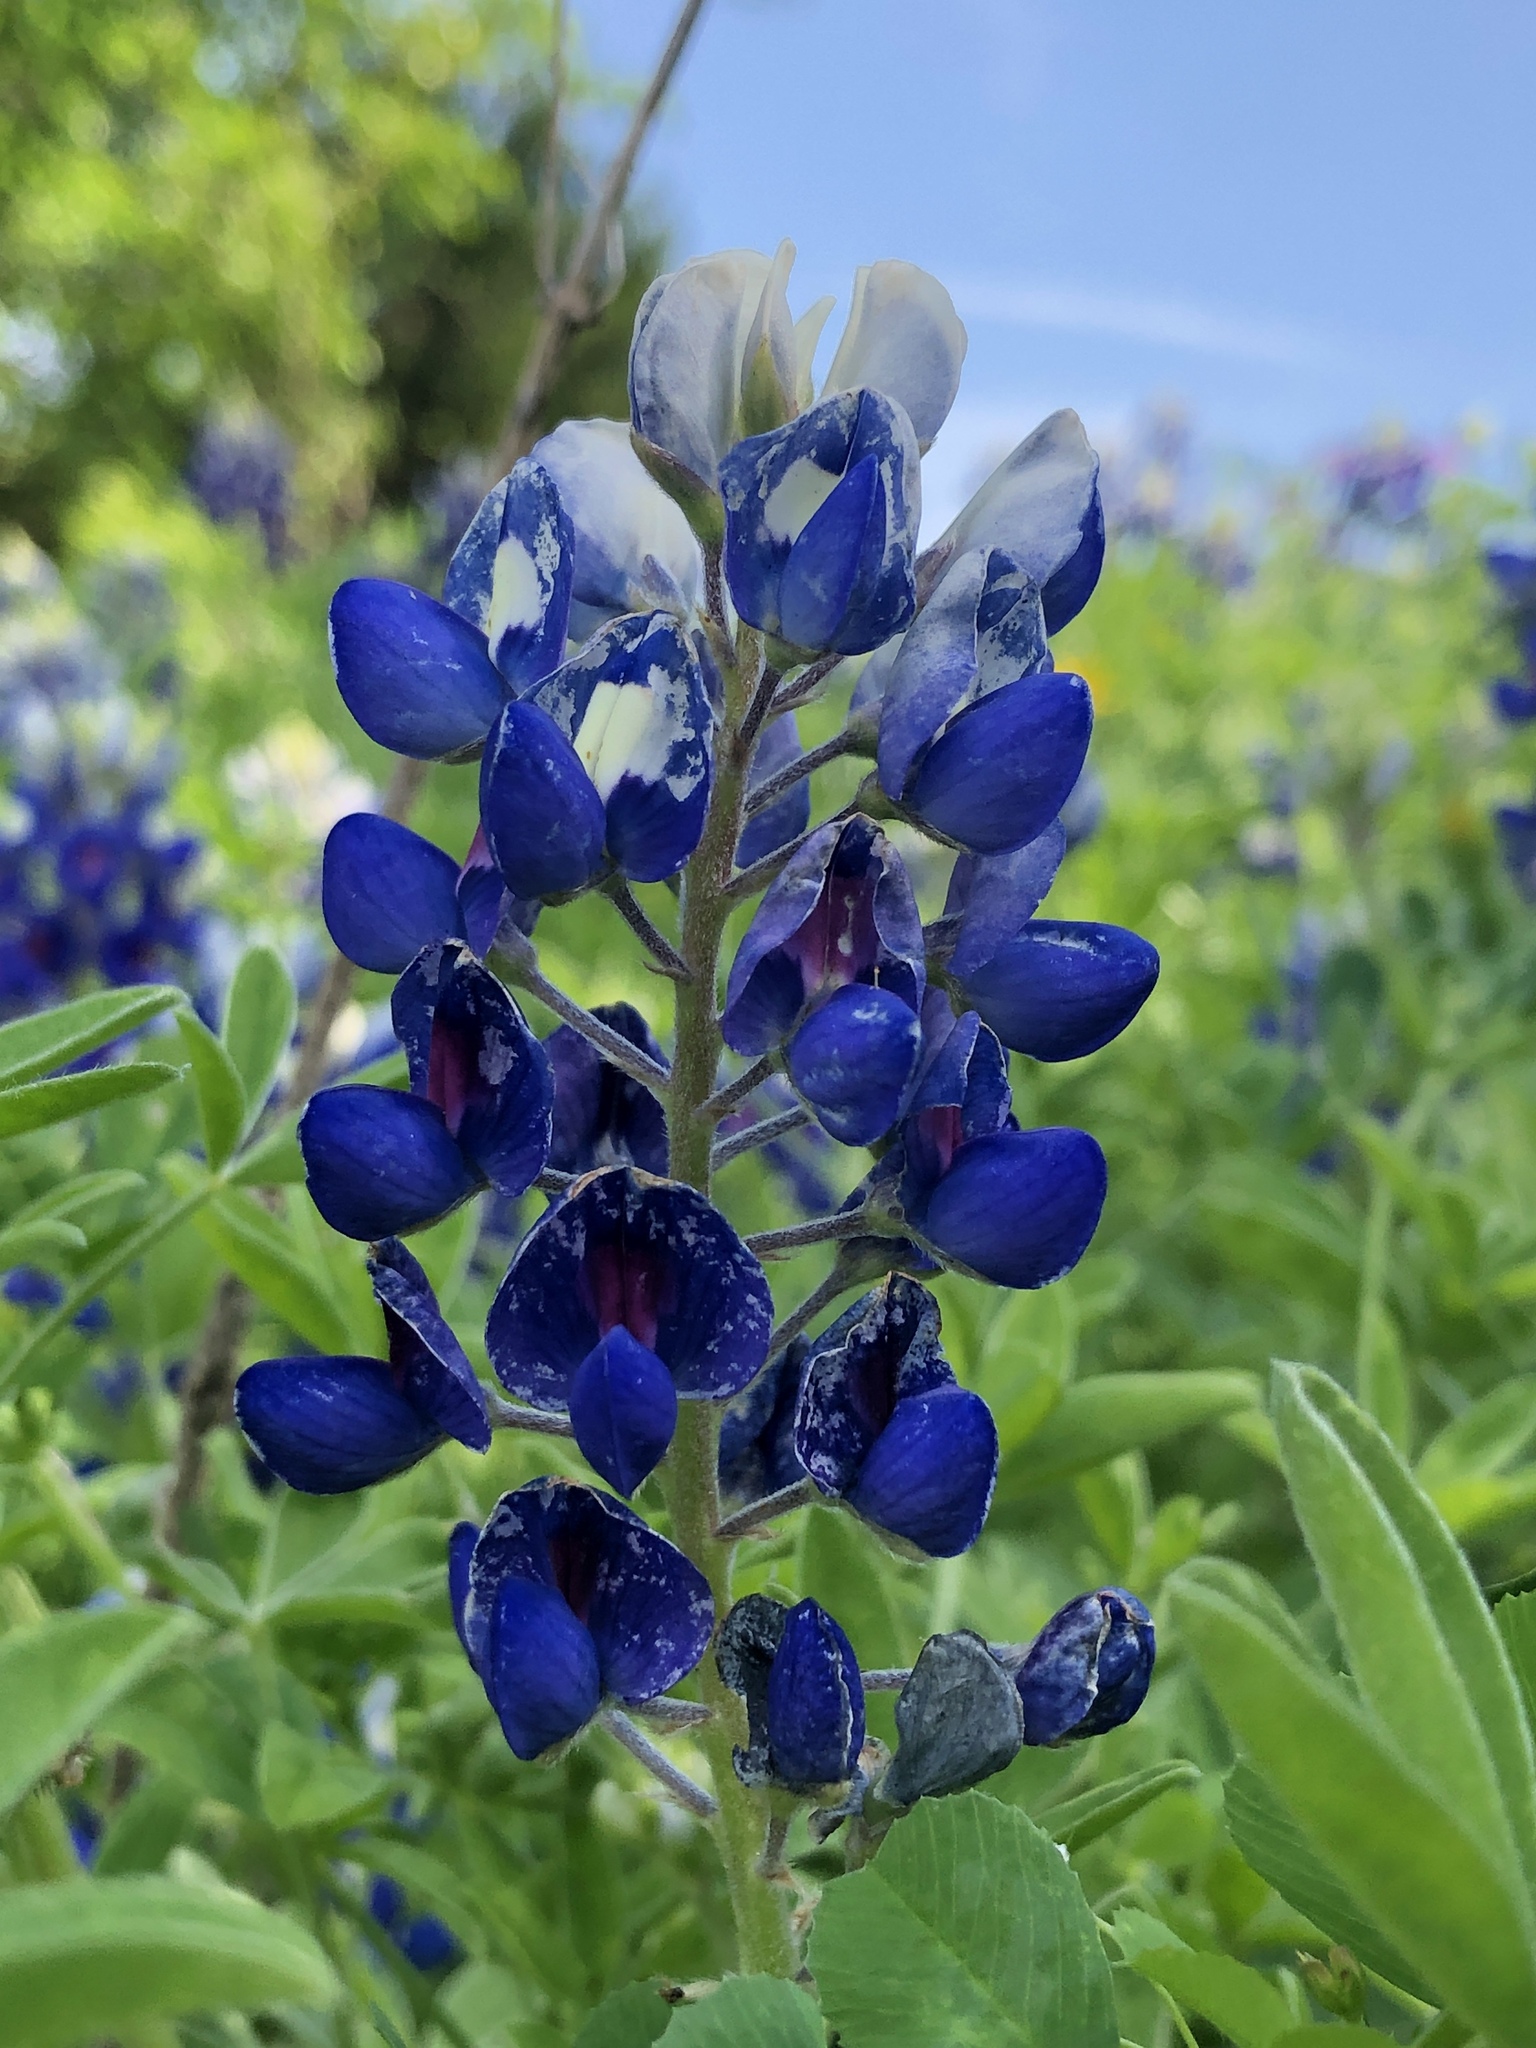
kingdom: Plantae
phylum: Tracheophyta
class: Magnoliopsida
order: Fabales
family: Fabaceae
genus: Lupinus
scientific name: Lupinus texensis
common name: Texas bluebonnet
